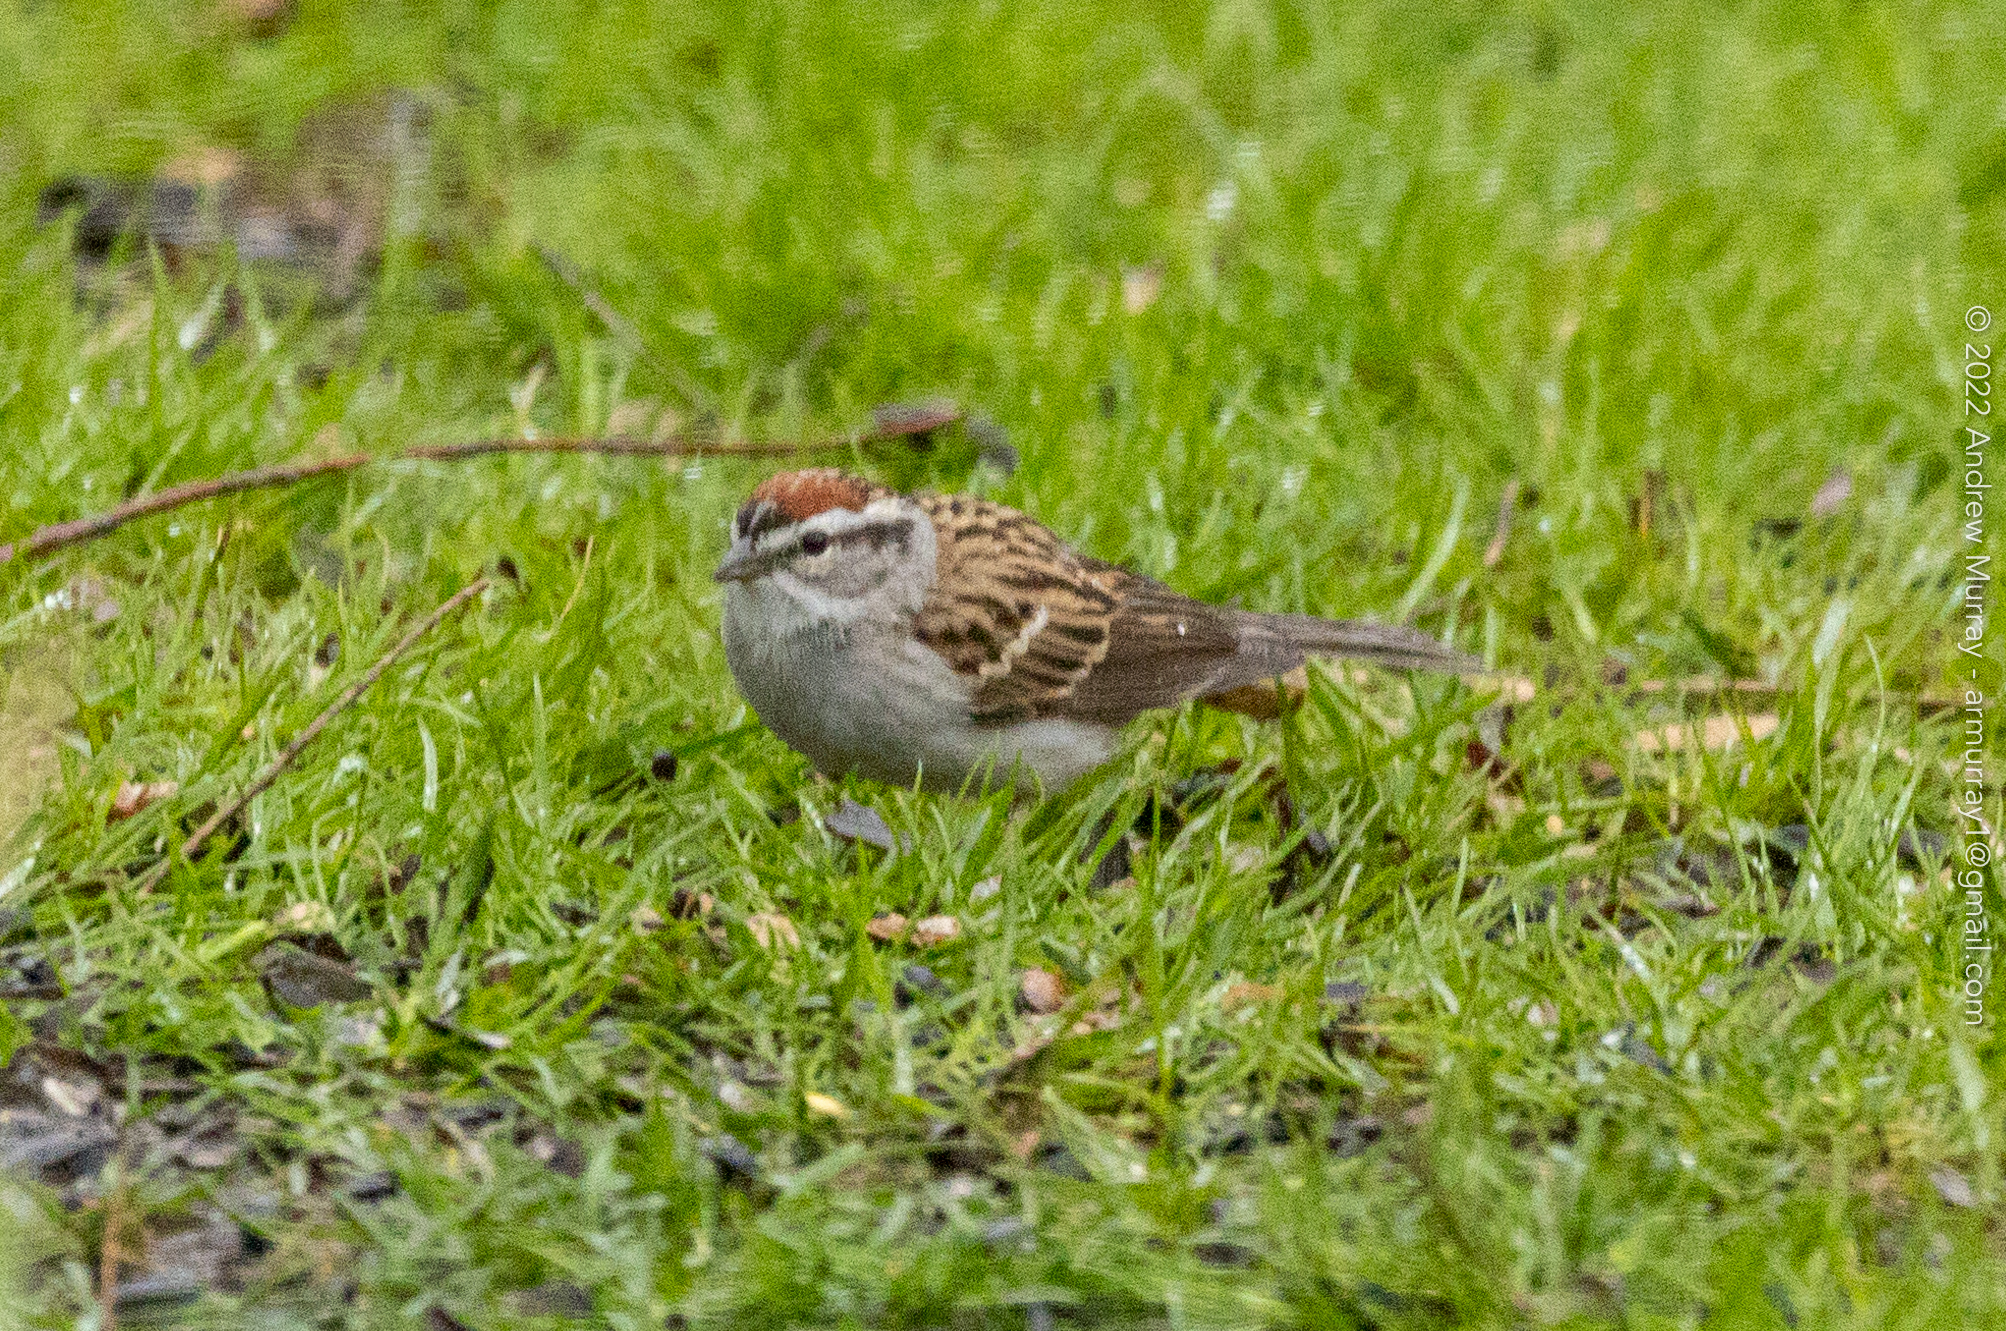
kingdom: Animalia
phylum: Chordata
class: Aves
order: Passeriformes
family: Passerellidae
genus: Spizella
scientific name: Spizella passerina
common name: Chipping sparrow
